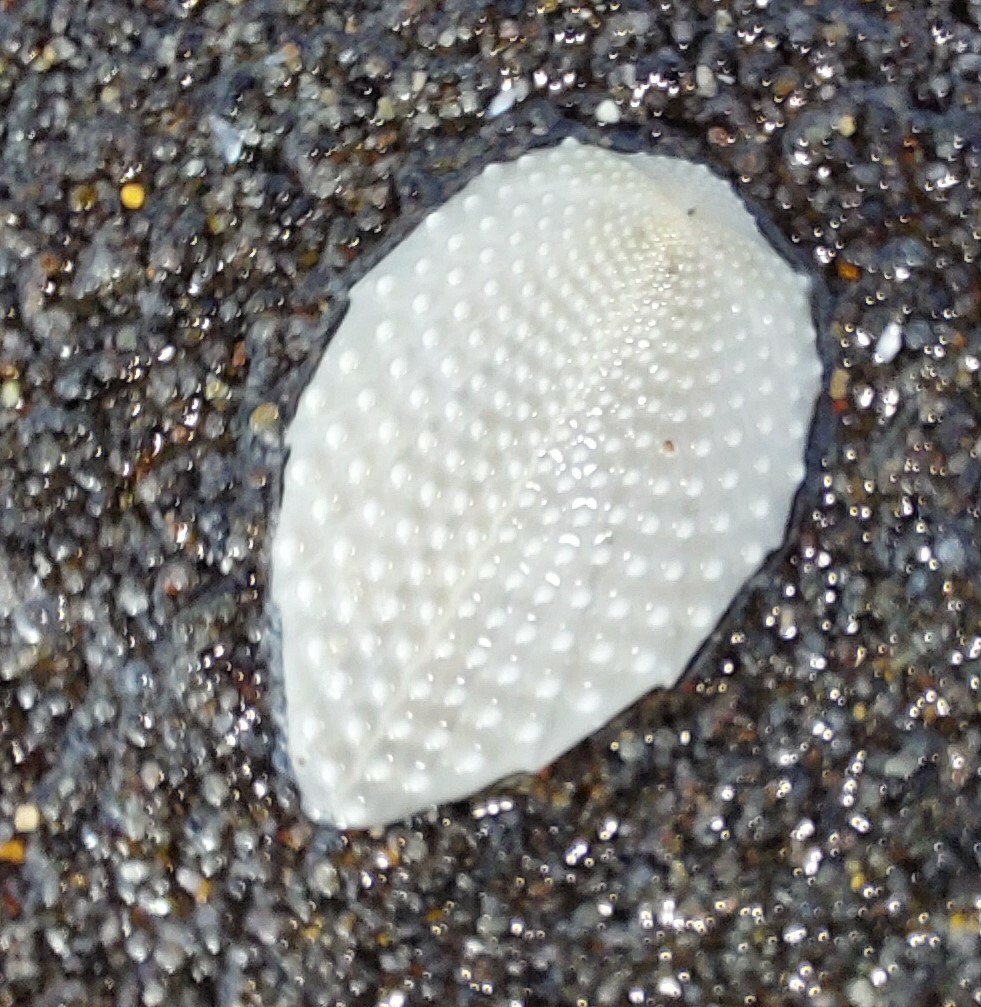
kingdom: Animalia
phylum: Echinodermata
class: Echinoidea
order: Spatangoida
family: Loveniidae
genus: Echinocardium
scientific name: Echinocardium cordatum
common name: Heart-urchin
